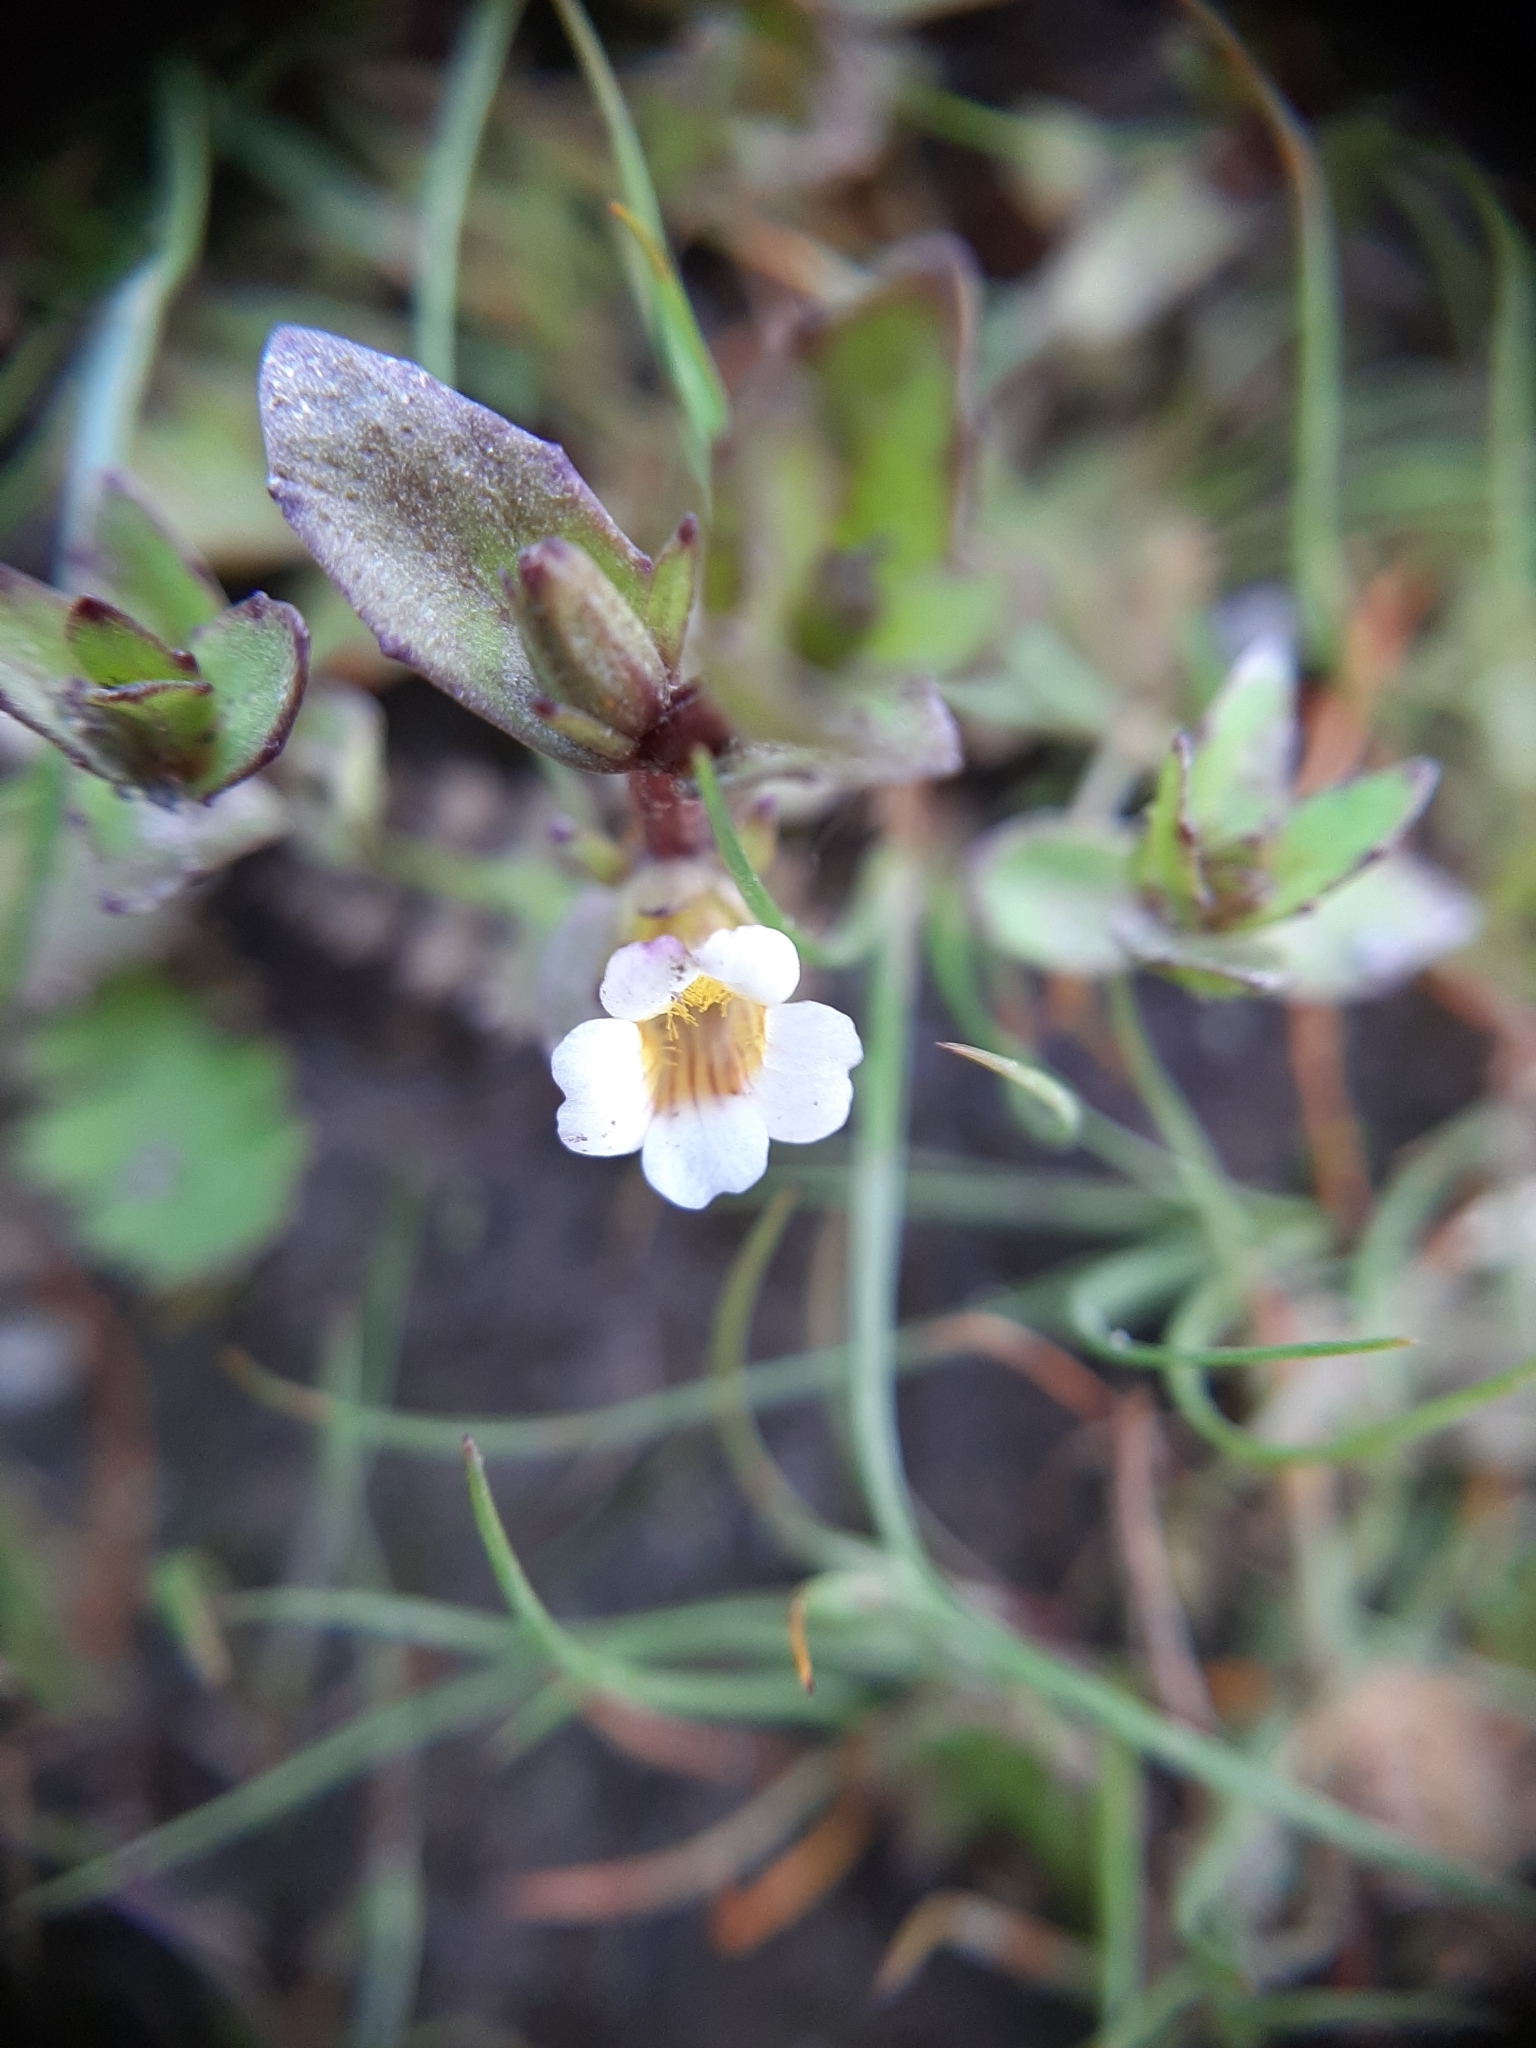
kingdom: Plantae
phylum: Tracheophyta
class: Magnoliopsida
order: Lamiales
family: Plantaginaceae
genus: Gratiola
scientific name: Gratiola sexdentata
